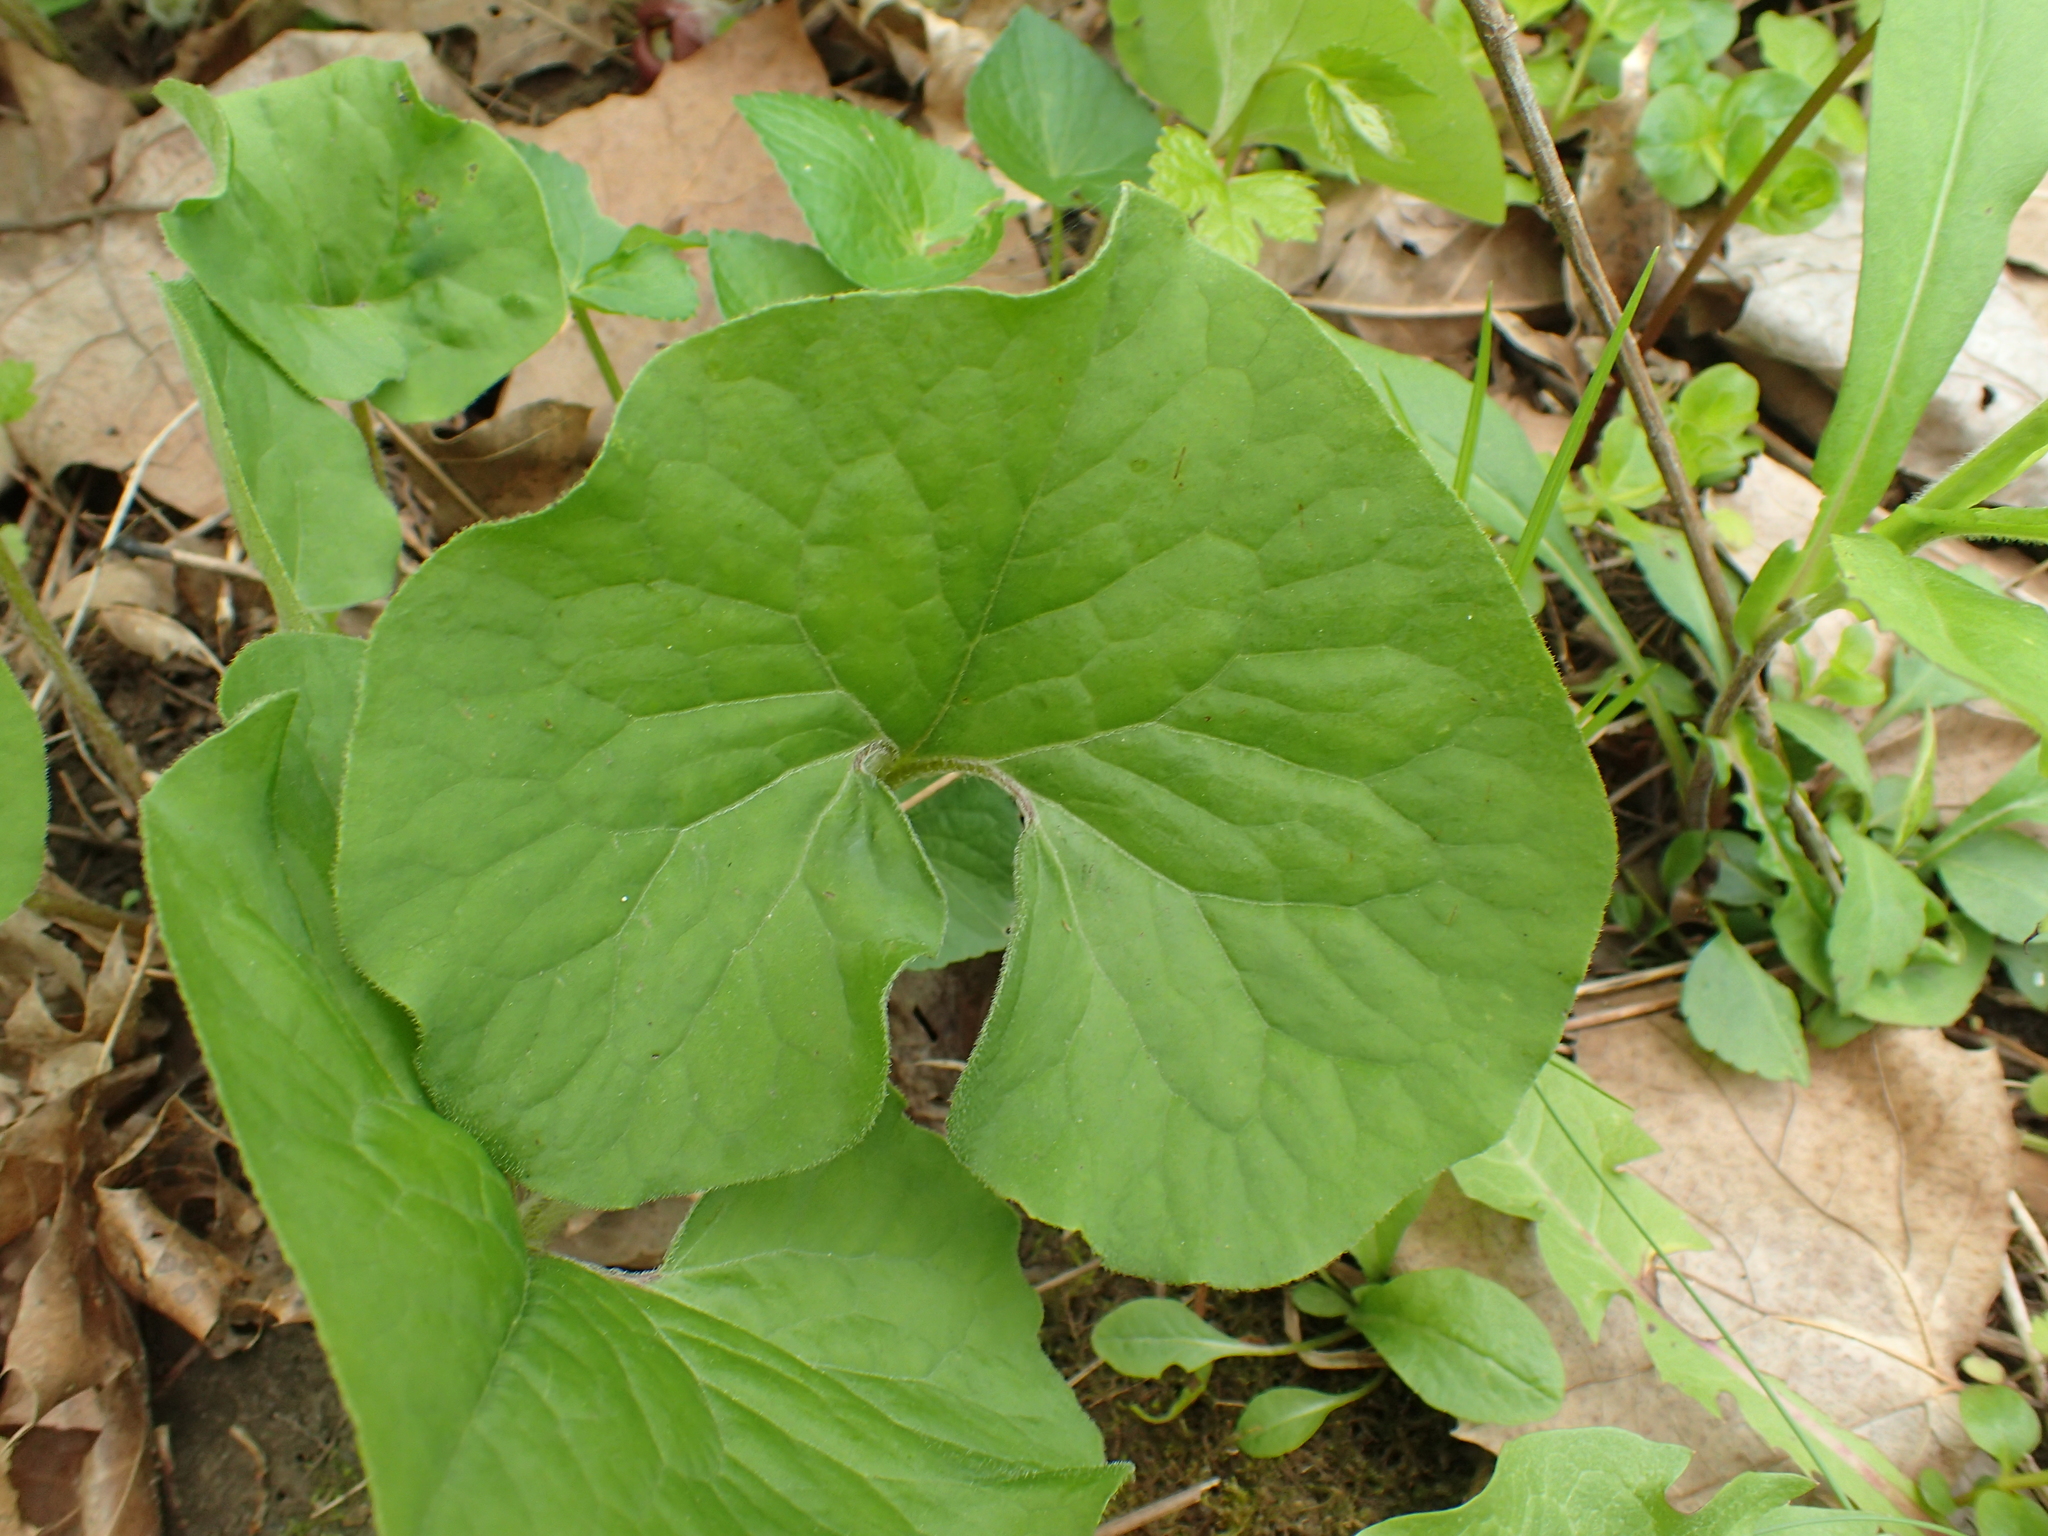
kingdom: Plantae
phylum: Tracheophyta
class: Magnoliopsida
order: Piperales
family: Aristolochiaceae
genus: Asarum
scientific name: Asarum canadense
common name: Wild ginger
